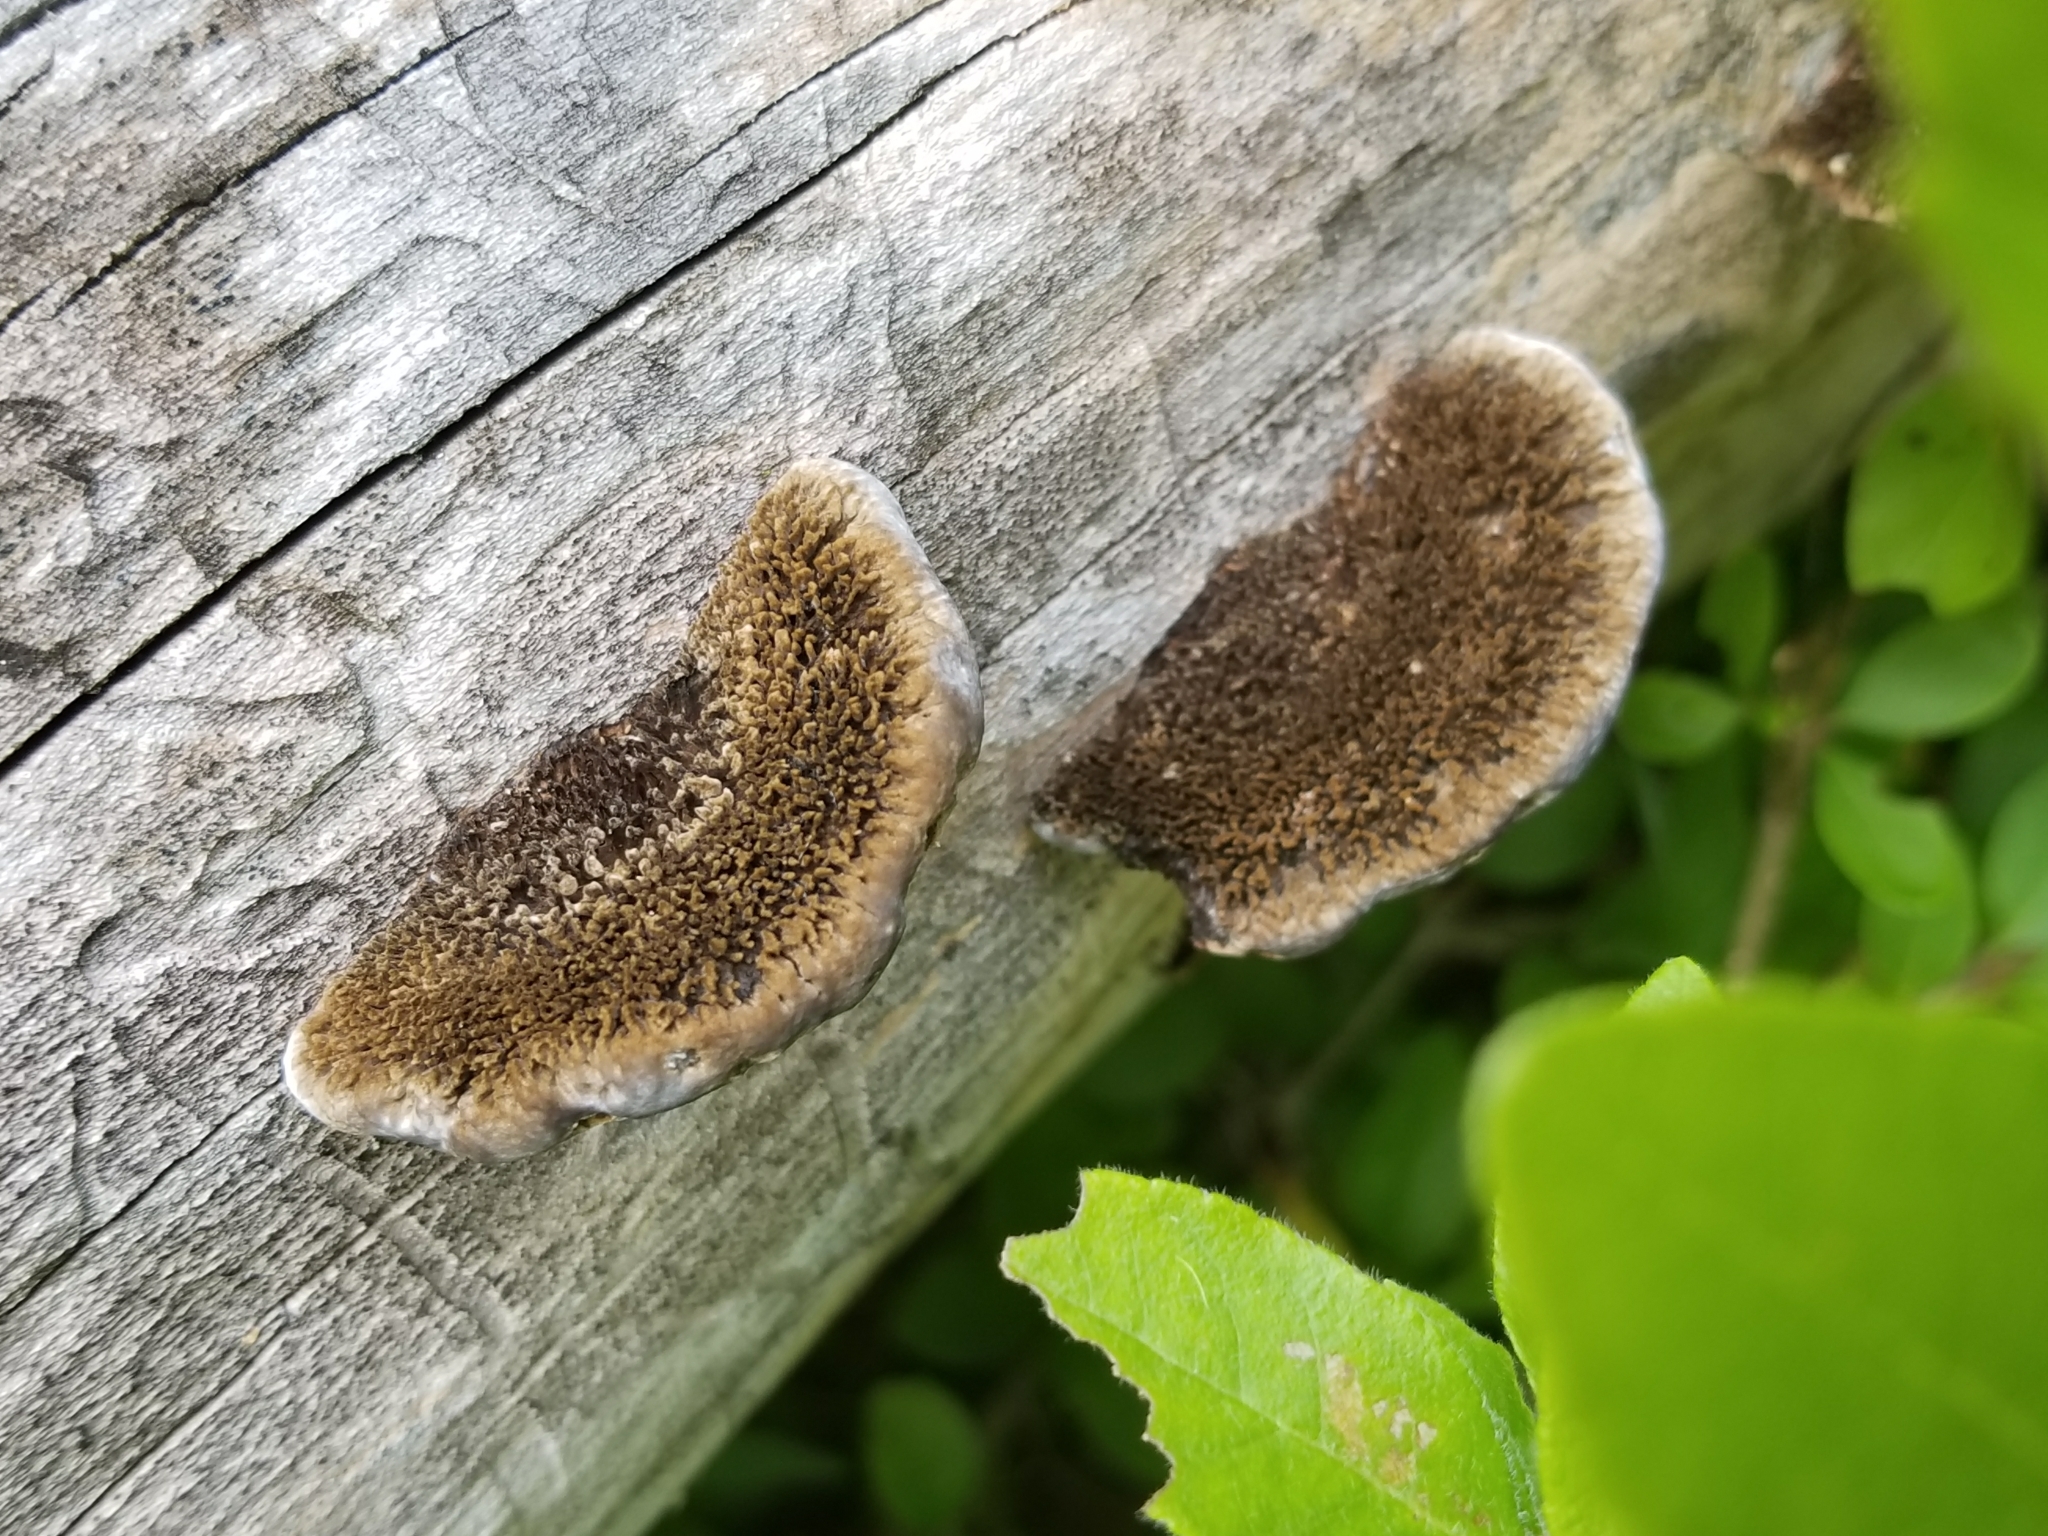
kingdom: Fungi
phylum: Basidiomycota
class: Agaricomycetes
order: Polyporales
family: Cerrenaceae
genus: Cerrena
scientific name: Cerrena hydnoides
